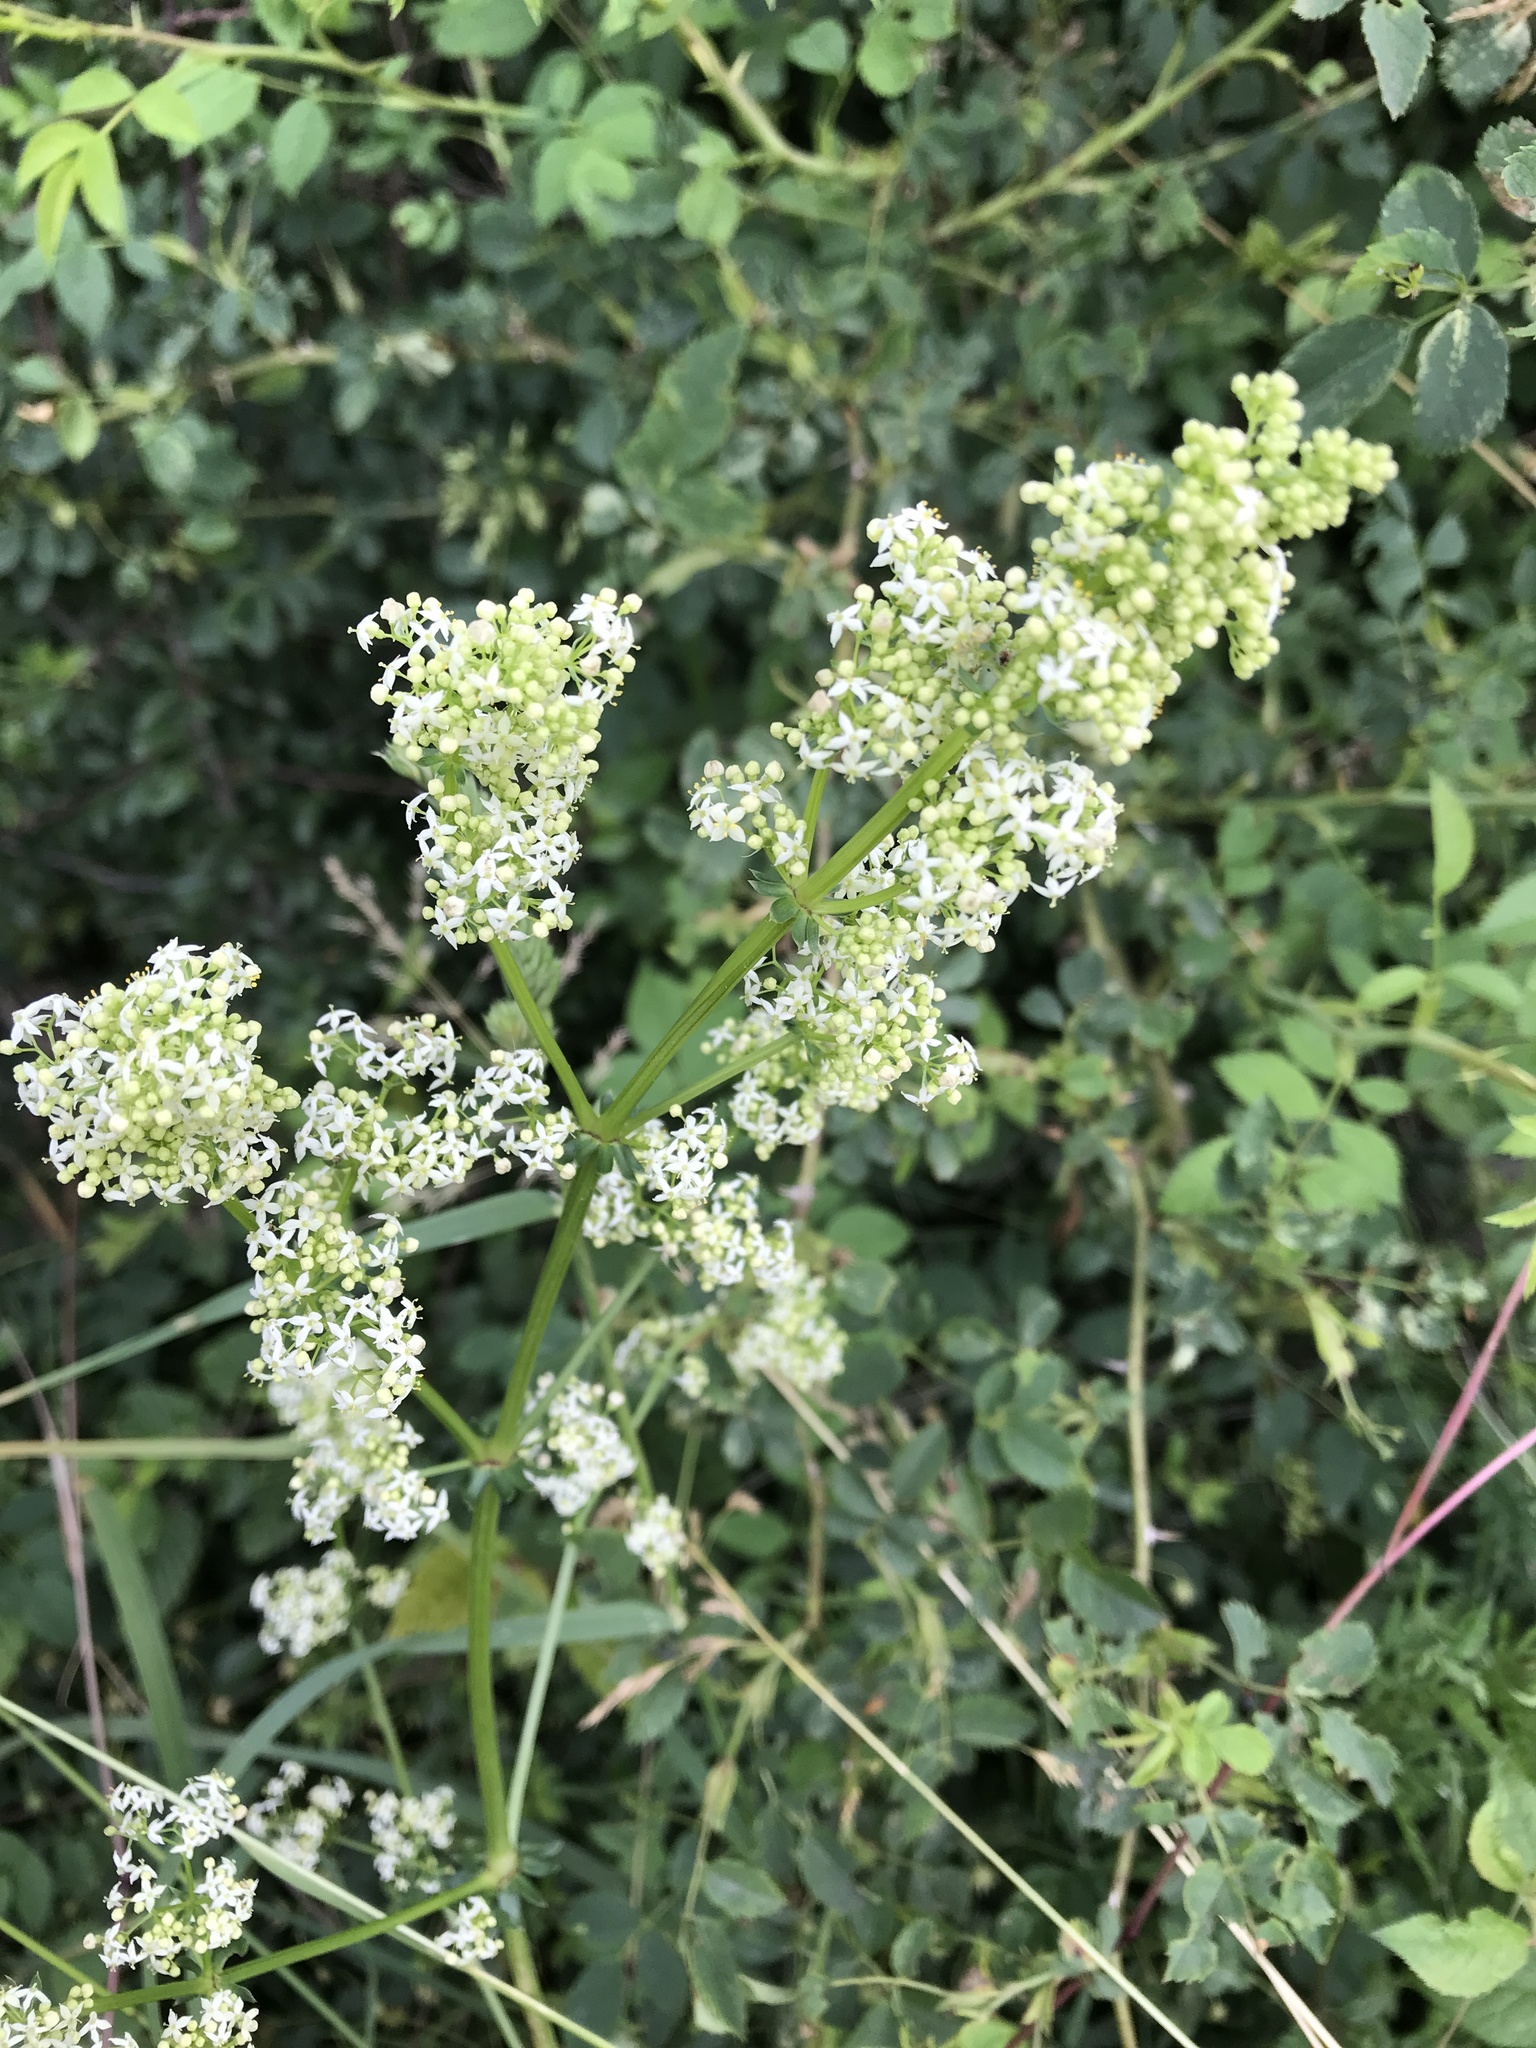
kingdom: Plantae
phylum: Tracheophyta
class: Magnoliopsida
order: Gentianales
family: Rubiaceae
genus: Galium
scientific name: Galium album
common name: White bedstraw
